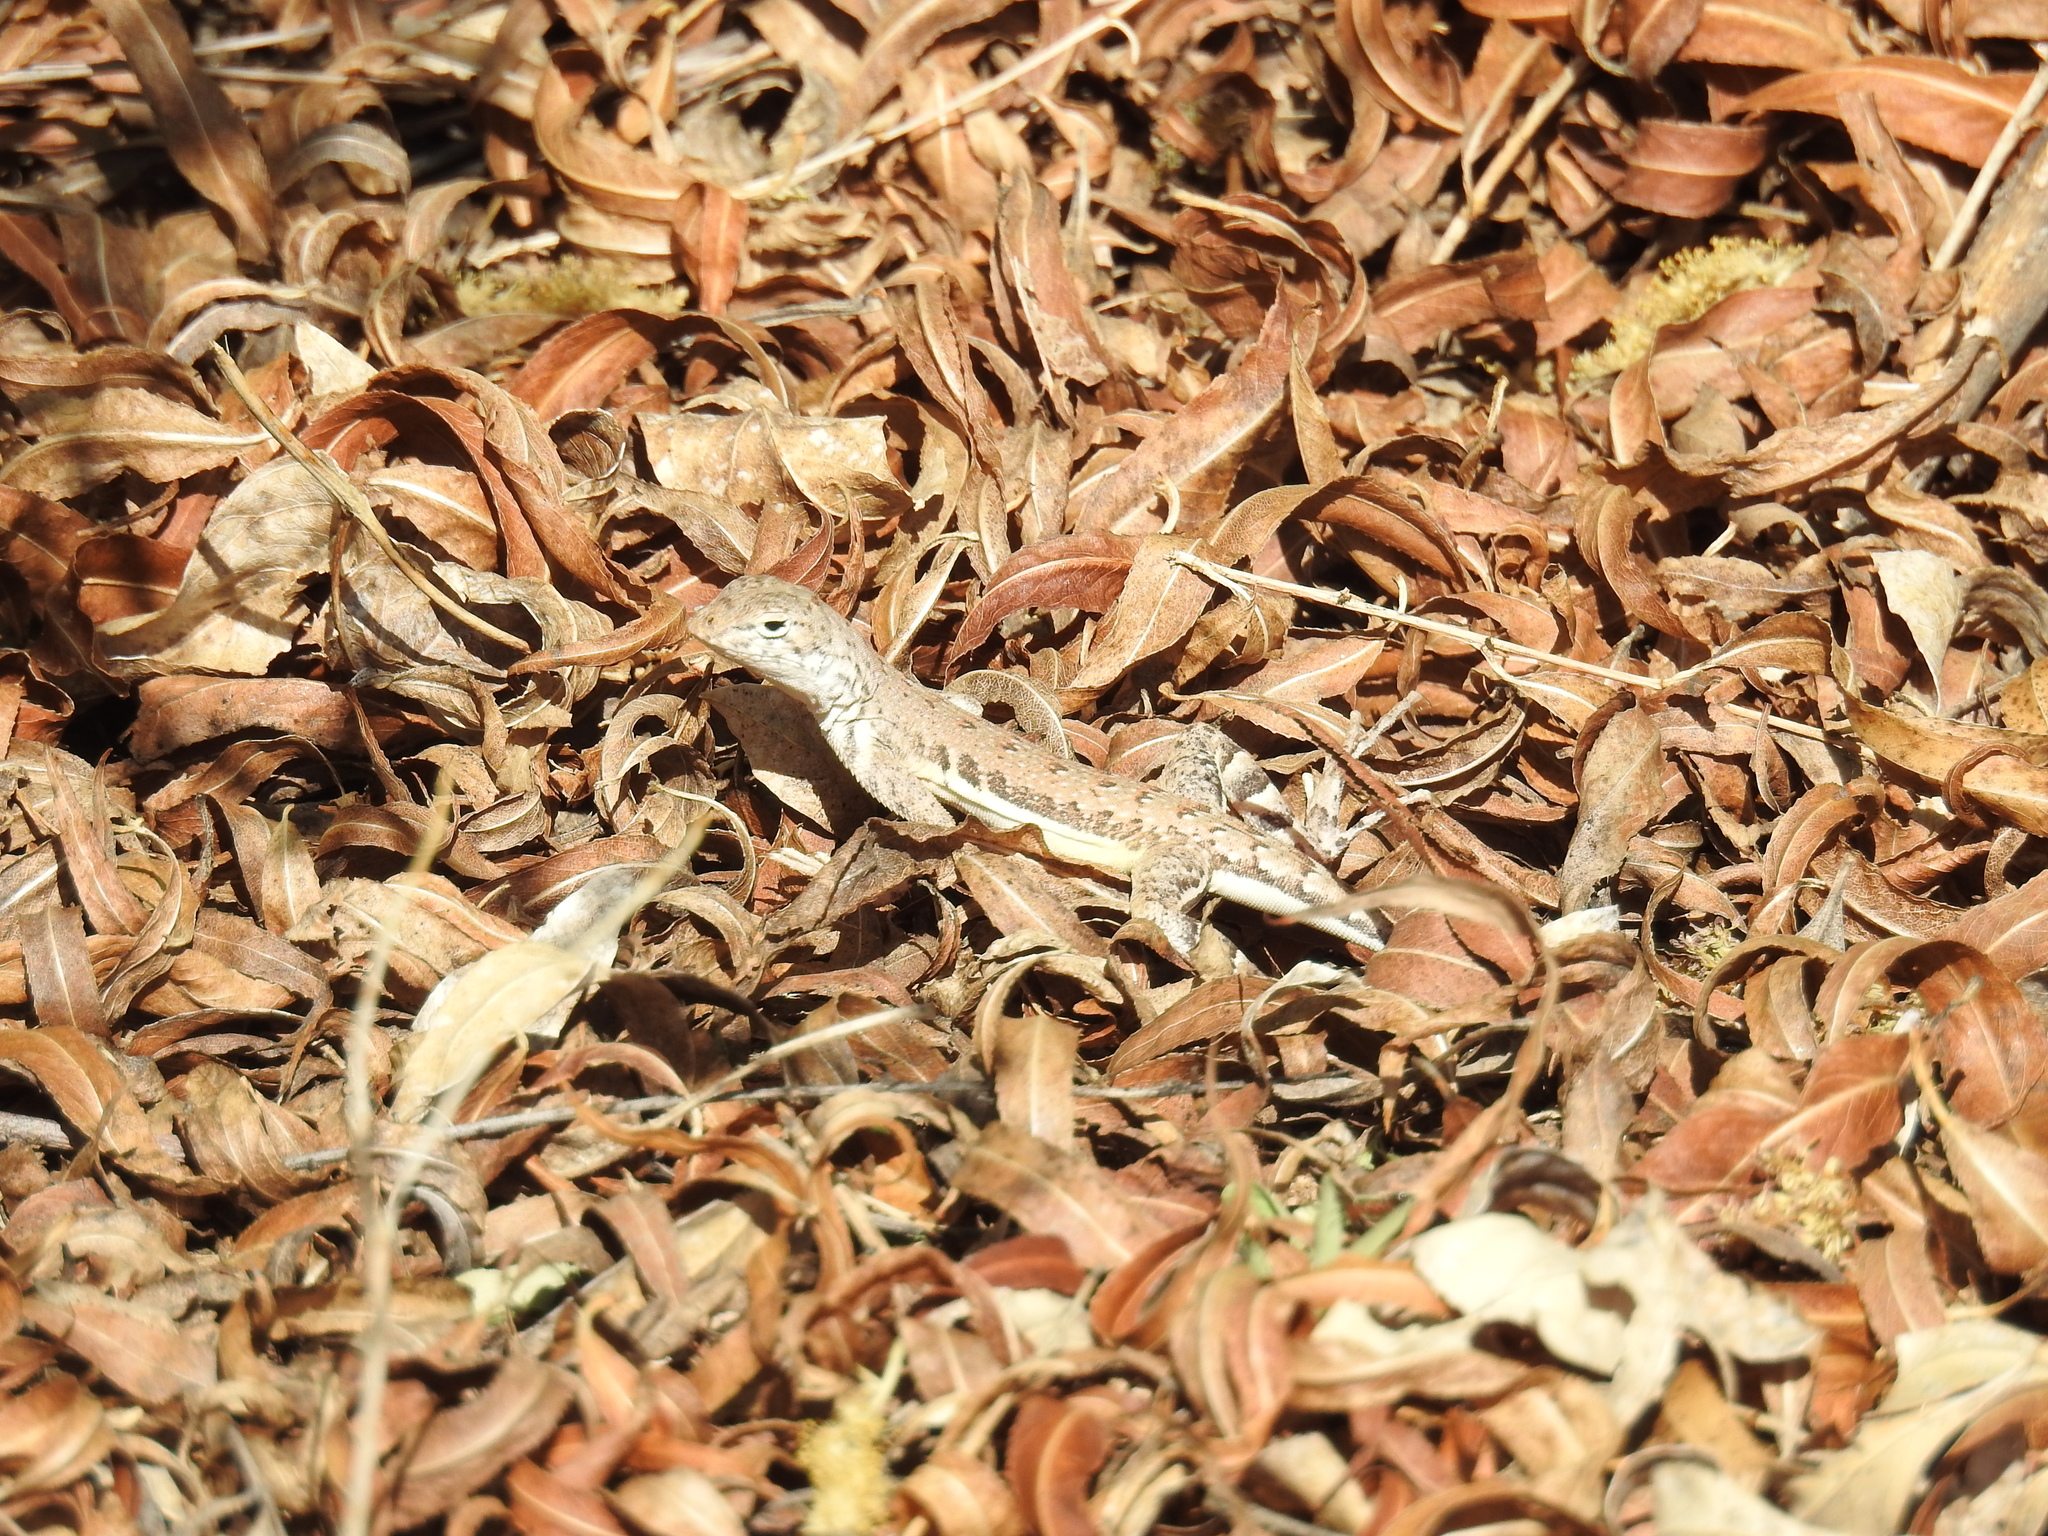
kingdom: Animalia
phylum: Chordata
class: Squamata
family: Phrynosomatidae
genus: Callisaurus
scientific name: Callisaurus draconoides
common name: Zebra-tailed lizard
